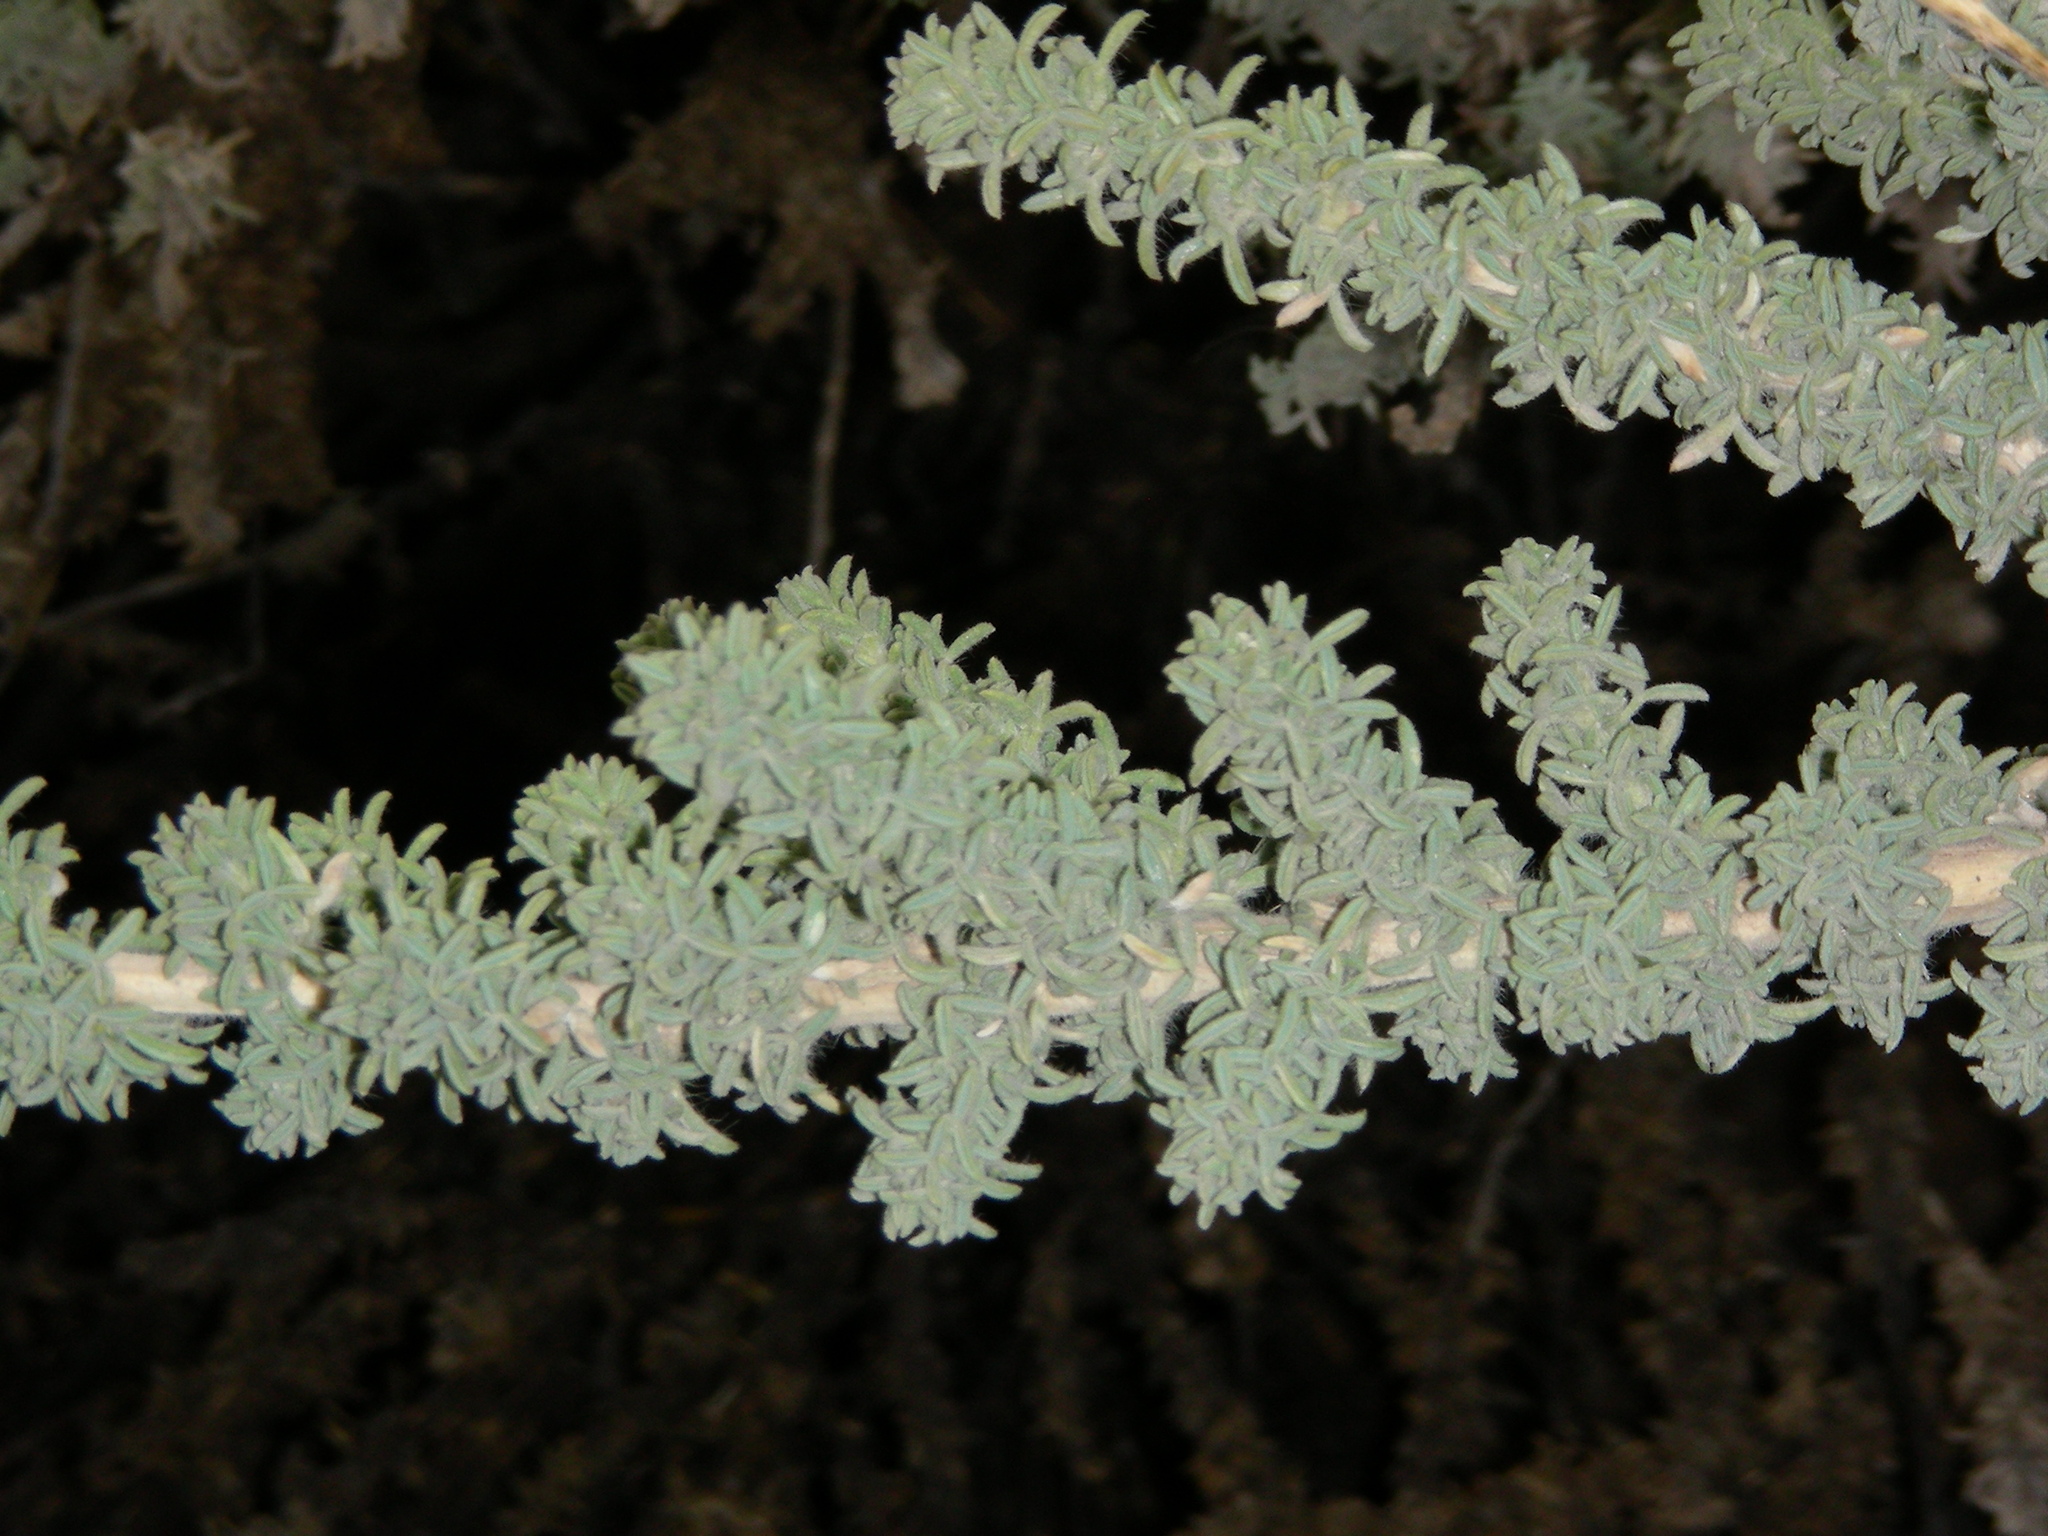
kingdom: Plantae
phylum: Tracheophyta
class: Magnoliopsida
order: Fabales
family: Fabaceae
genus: Adenocarpus
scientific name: Adenocarpus viscosus
